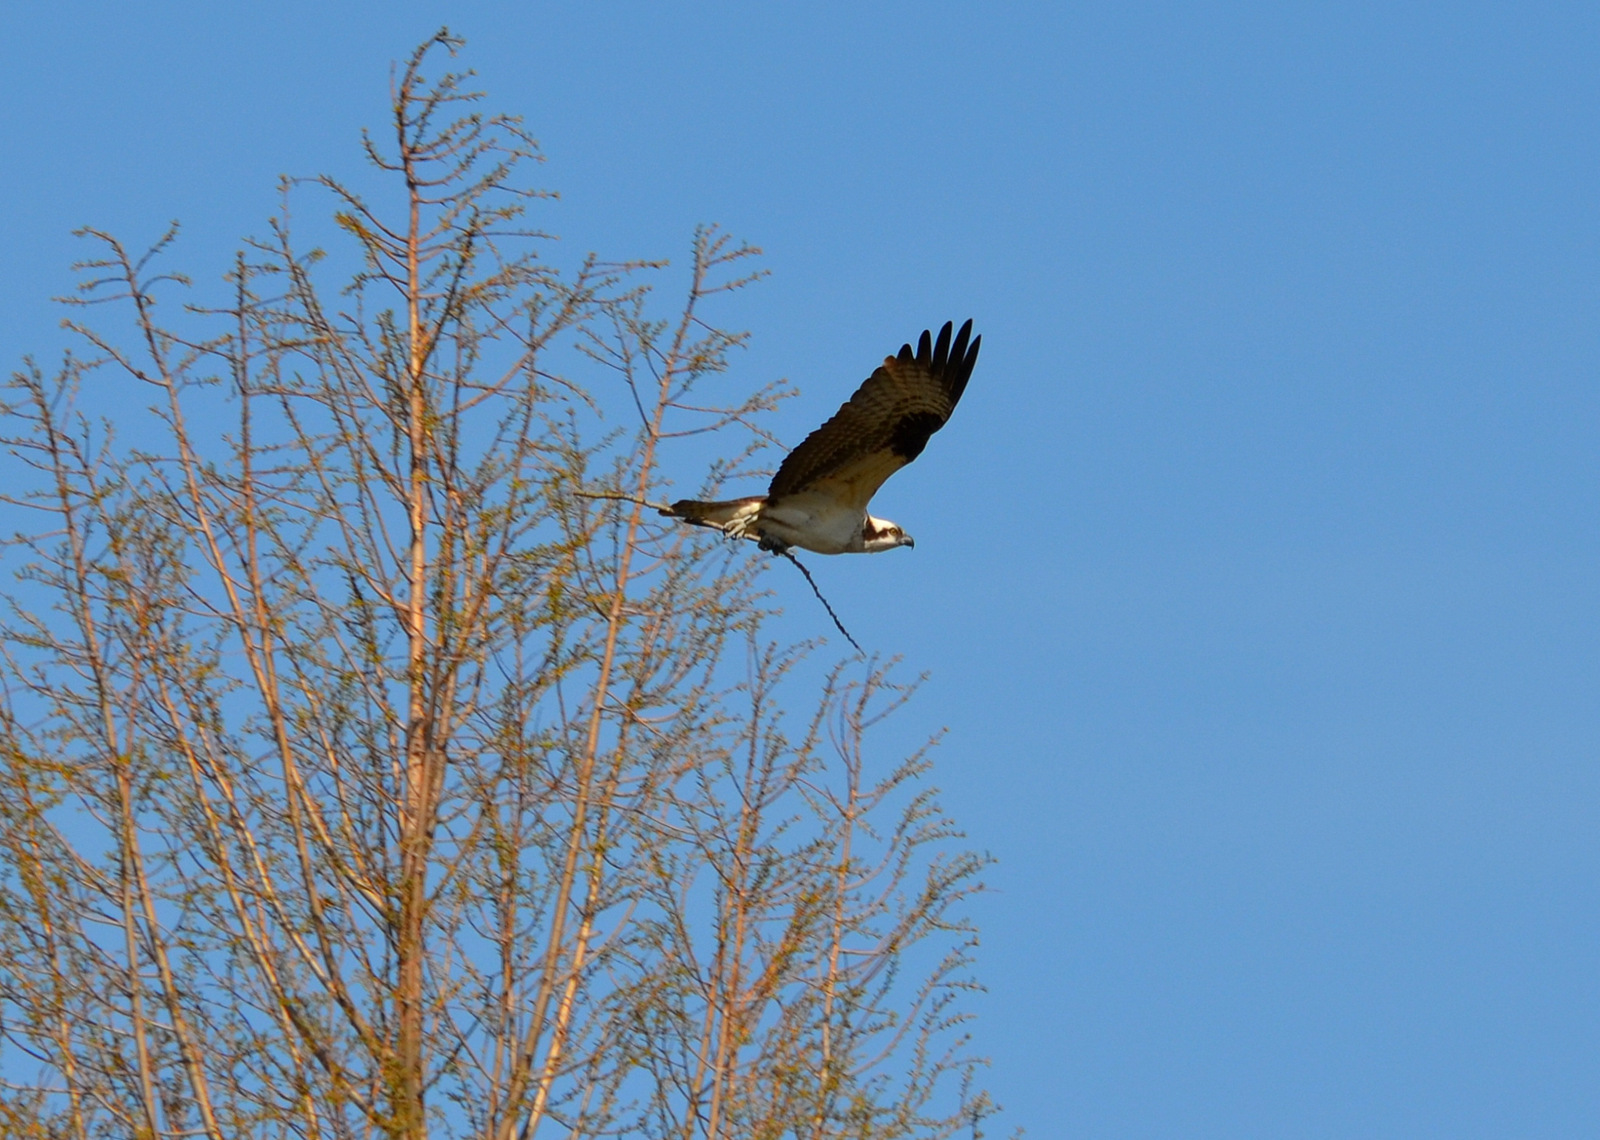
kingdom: Animalia
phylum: Chordata
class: Aves
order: Accipitriformes
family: Pandionidae
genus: Pandion
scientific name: Pandion haliaetus
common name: Osprey
